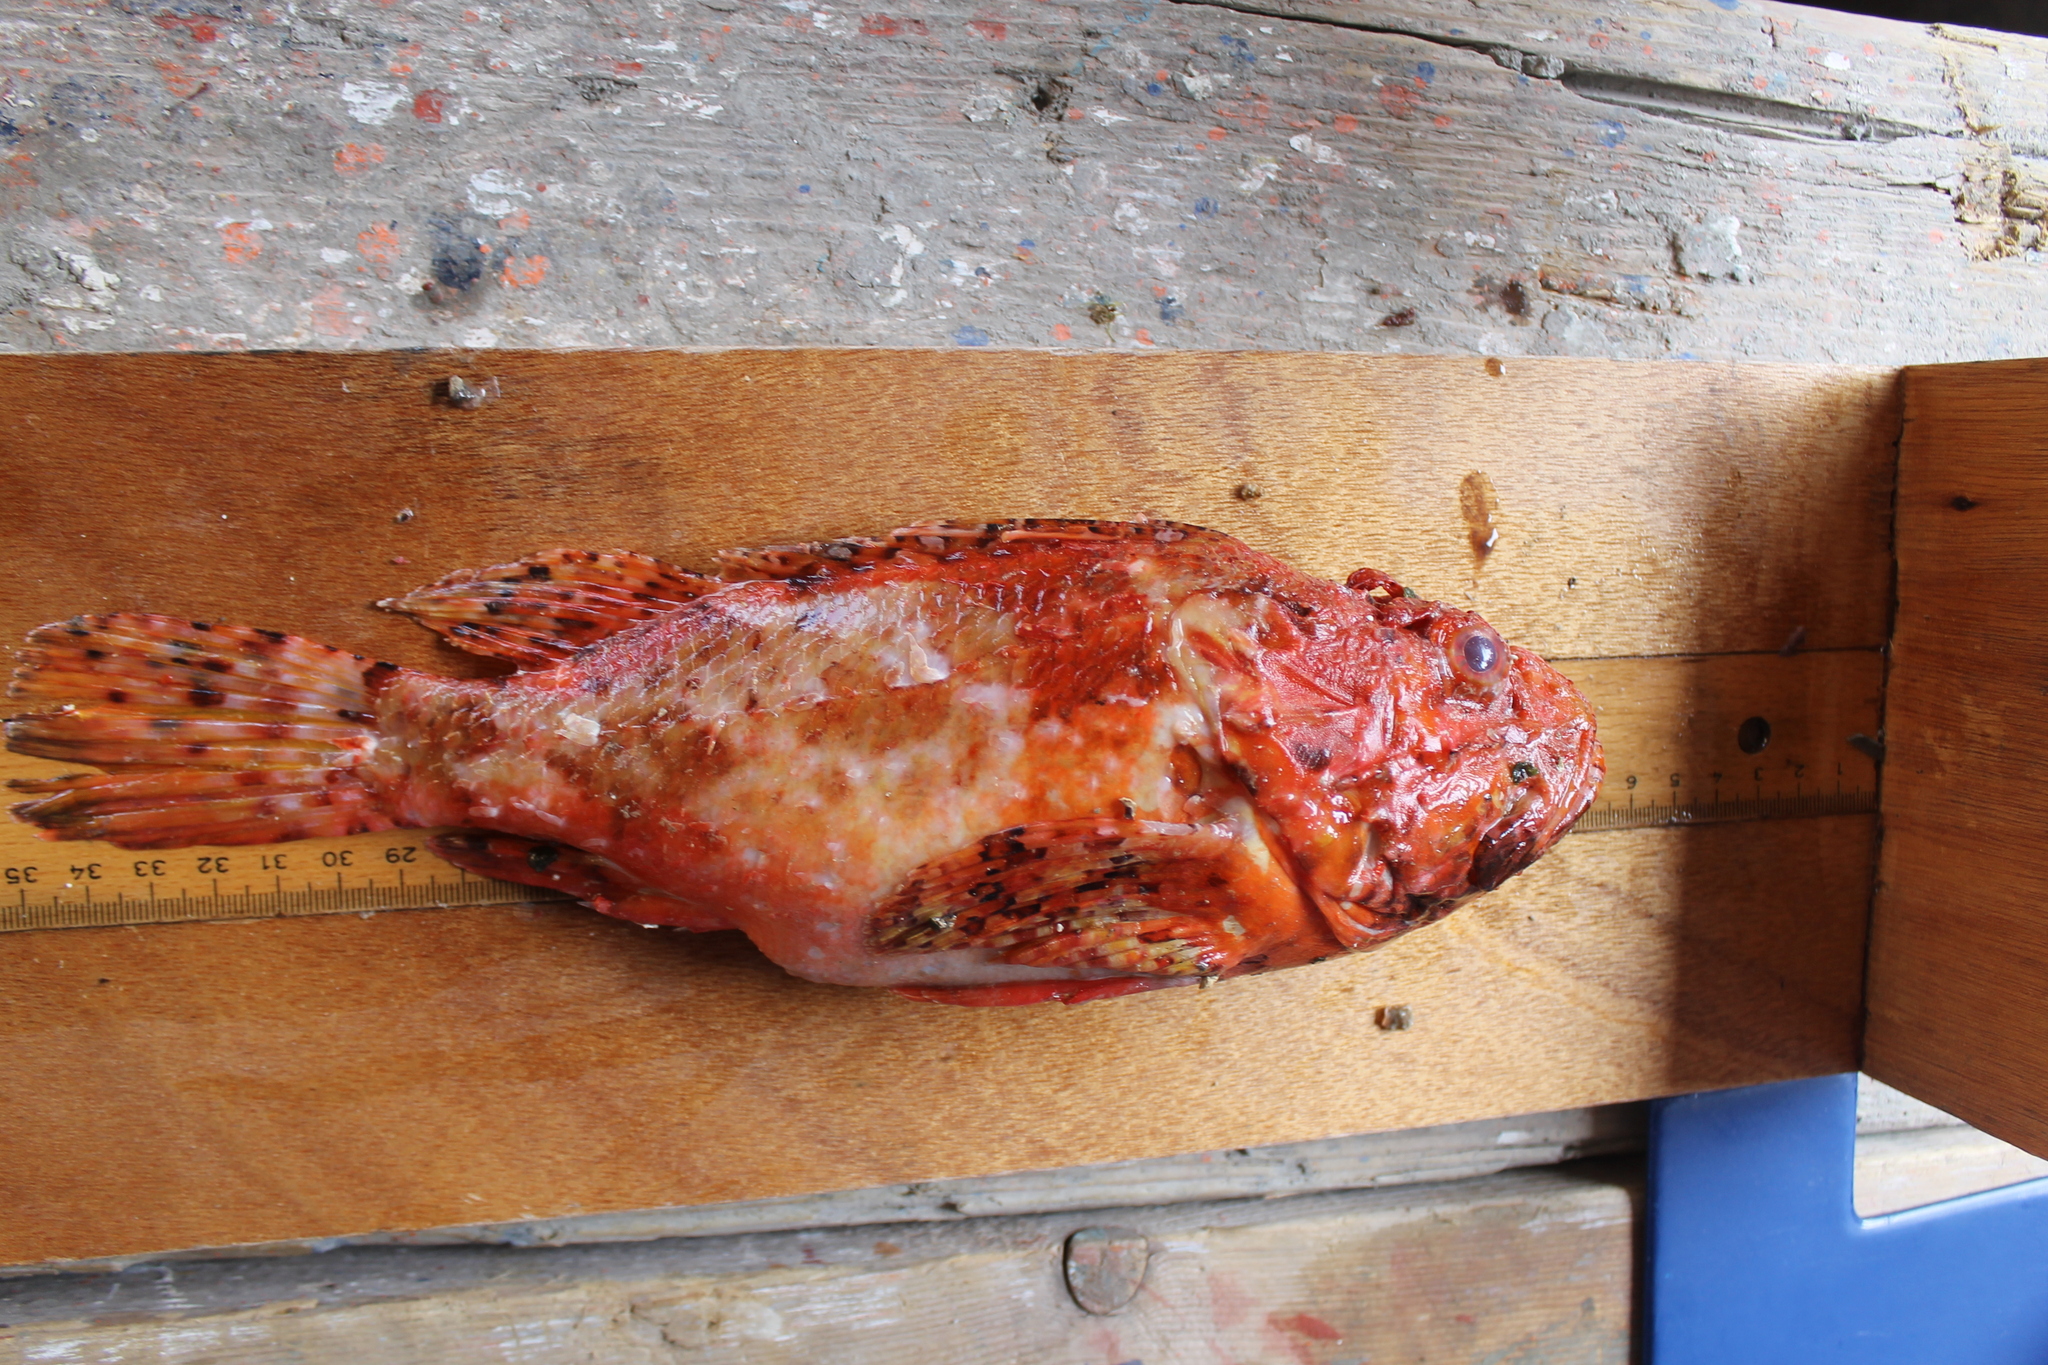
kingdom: Animalia
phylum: Chordata
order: Scorpaeniformes
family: Scorpaenidae
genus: Scorpaena
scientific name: Scorpaena scrofa
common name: Red scorpionfish
